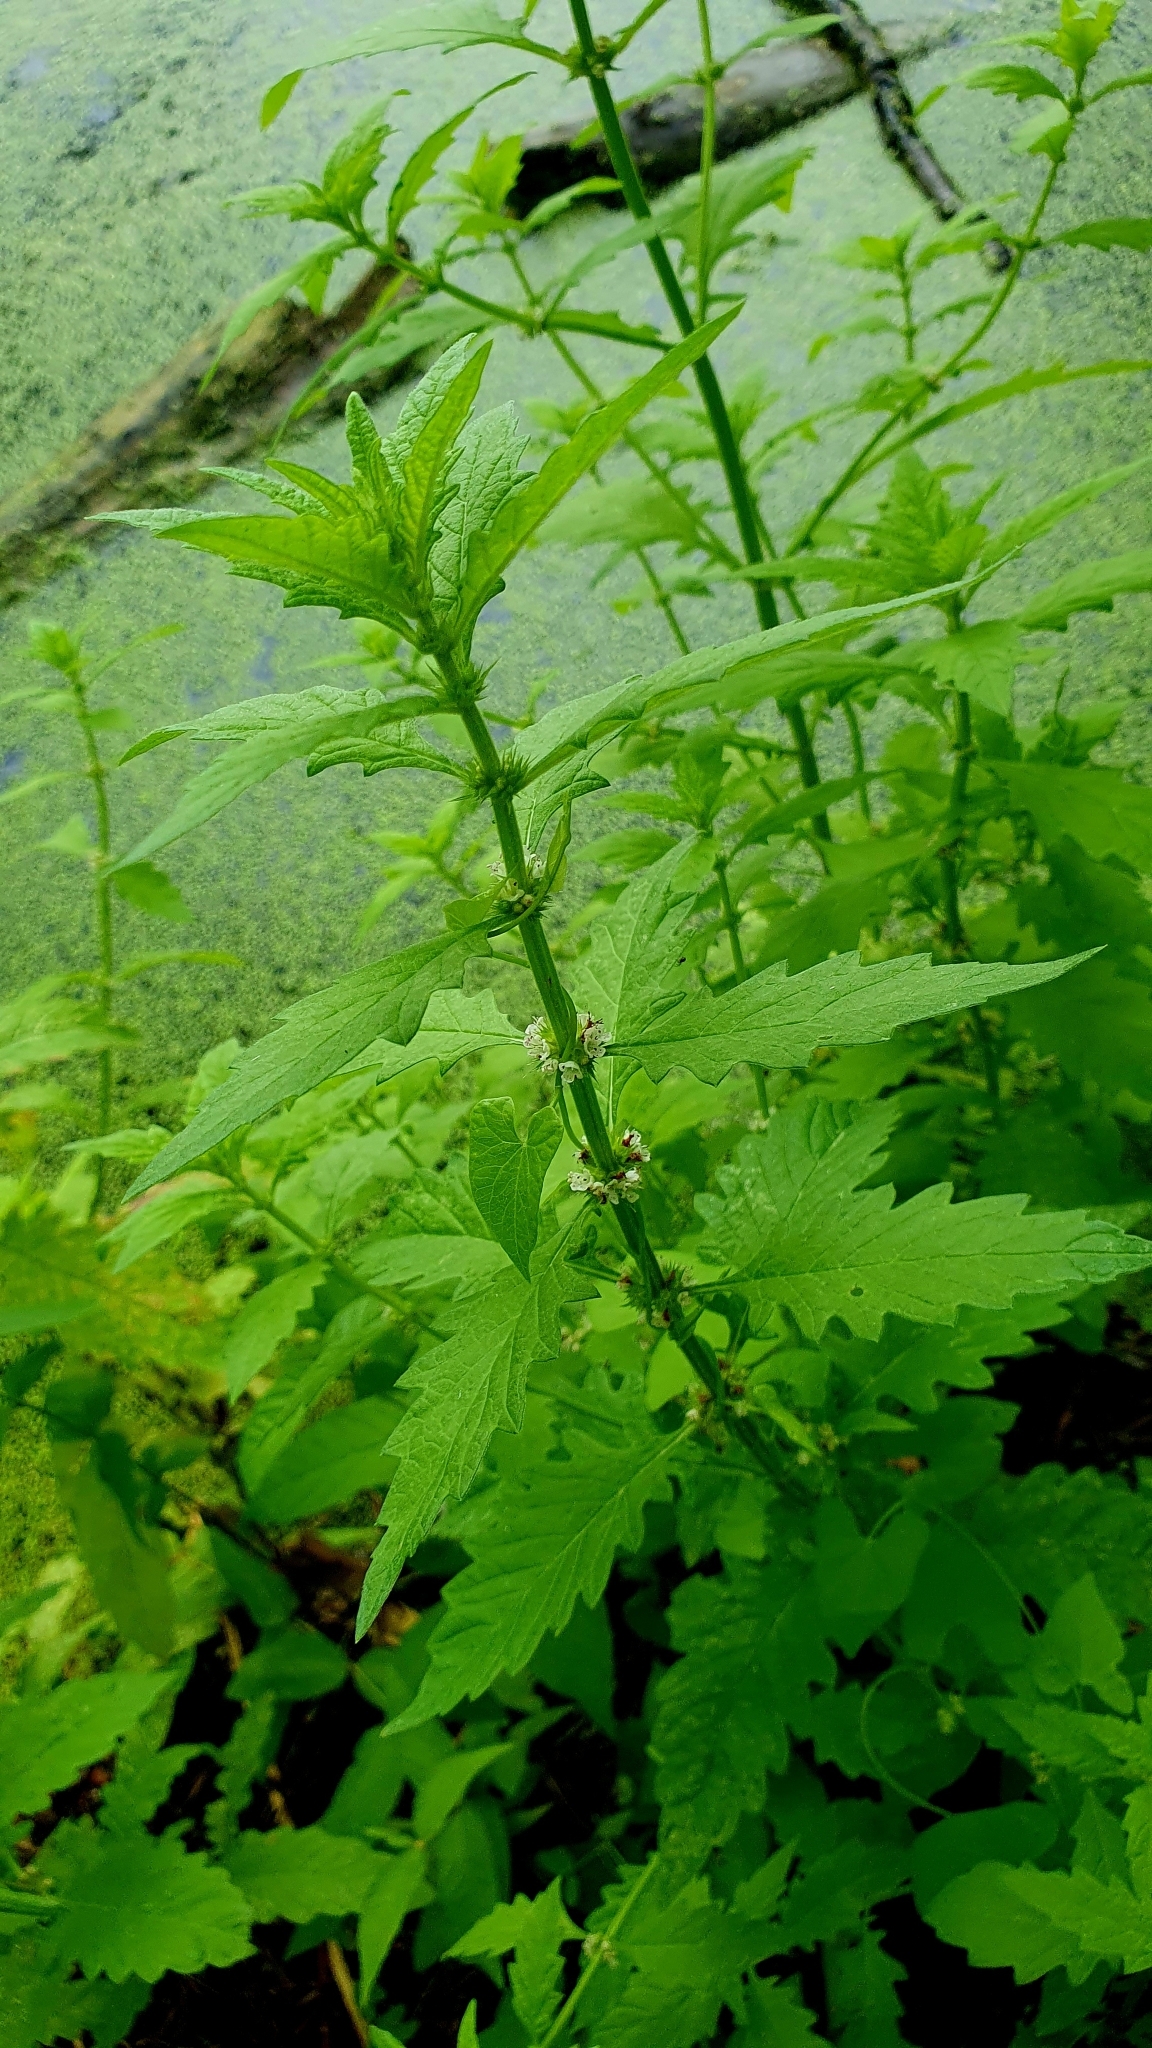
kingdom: Plantae
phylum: Tracheophyta
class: Magnoliopsida
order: Lamiales
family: Lamiaceae
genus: Lycopus
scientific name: Lycopus europaeus
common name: European bugleweed
